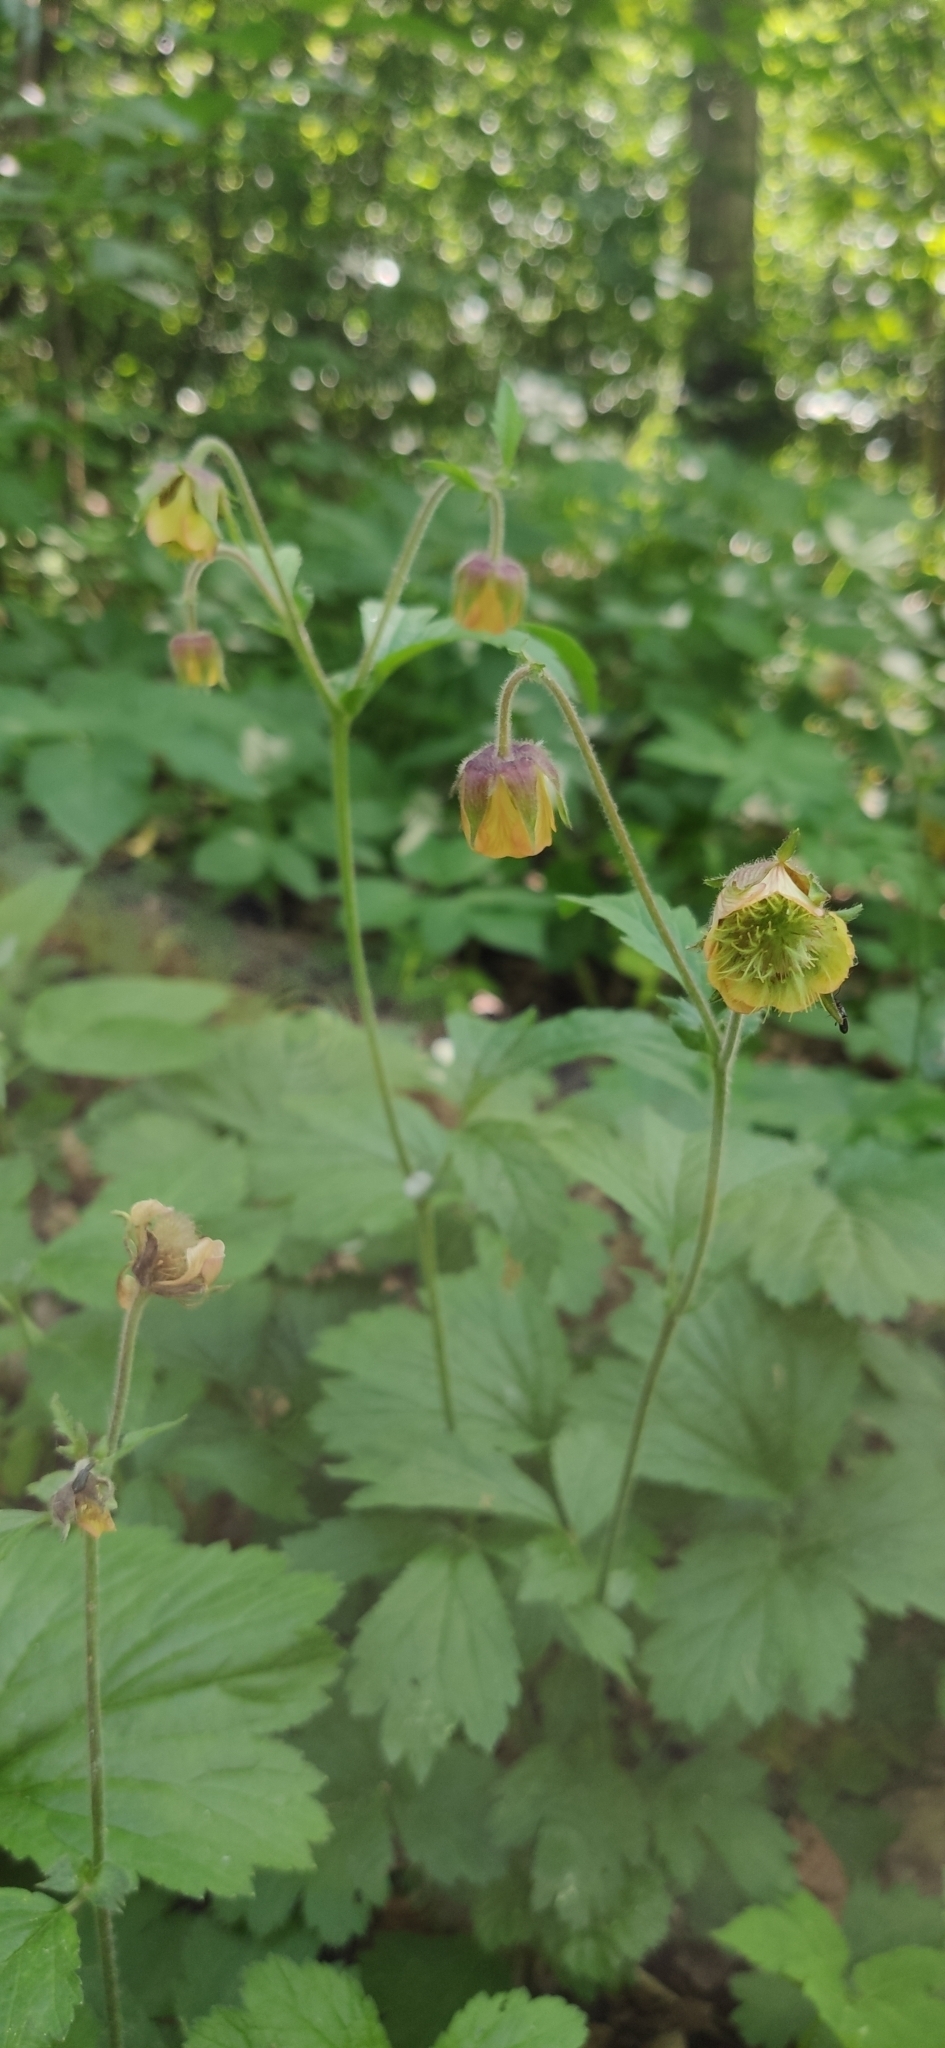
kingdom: Plantae
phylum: Tracheophyta
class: Magnoliopsida
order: Rosales
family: Rosaceae
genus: Geum
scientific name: Geum rivale
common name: Water avens
